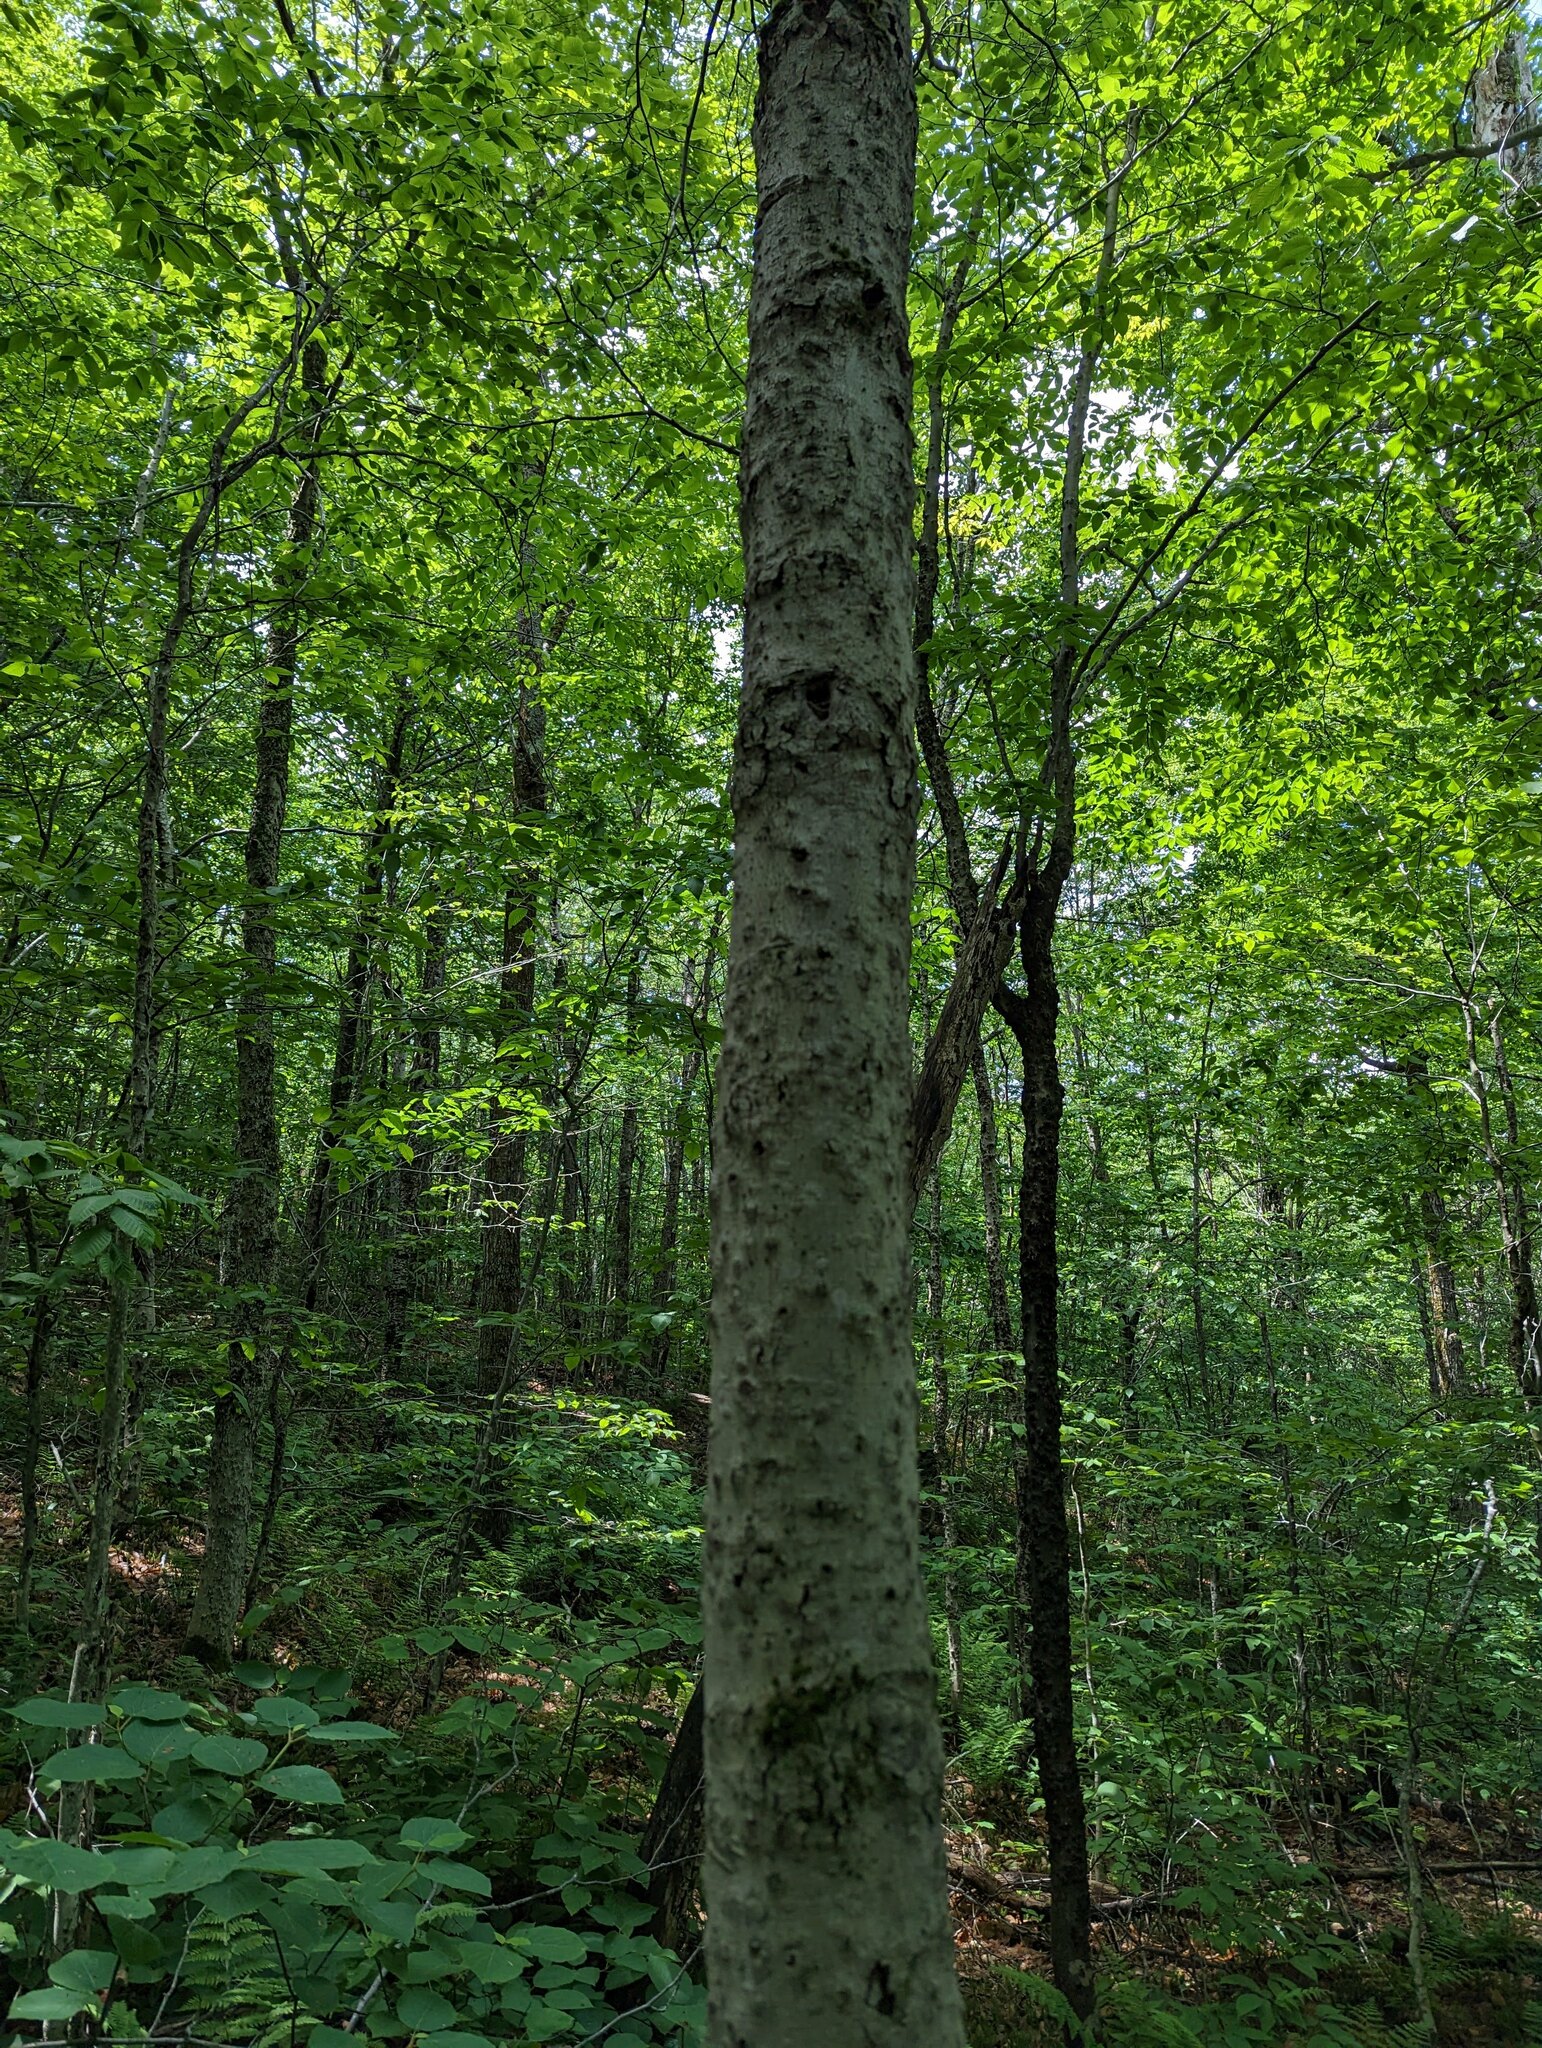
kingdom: Plantae
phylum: Tracheophyta
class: Magnoliopsida
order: Fagales
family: Fagaceae
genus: Fagus
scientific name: Fagus grandifolia
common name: American beech
